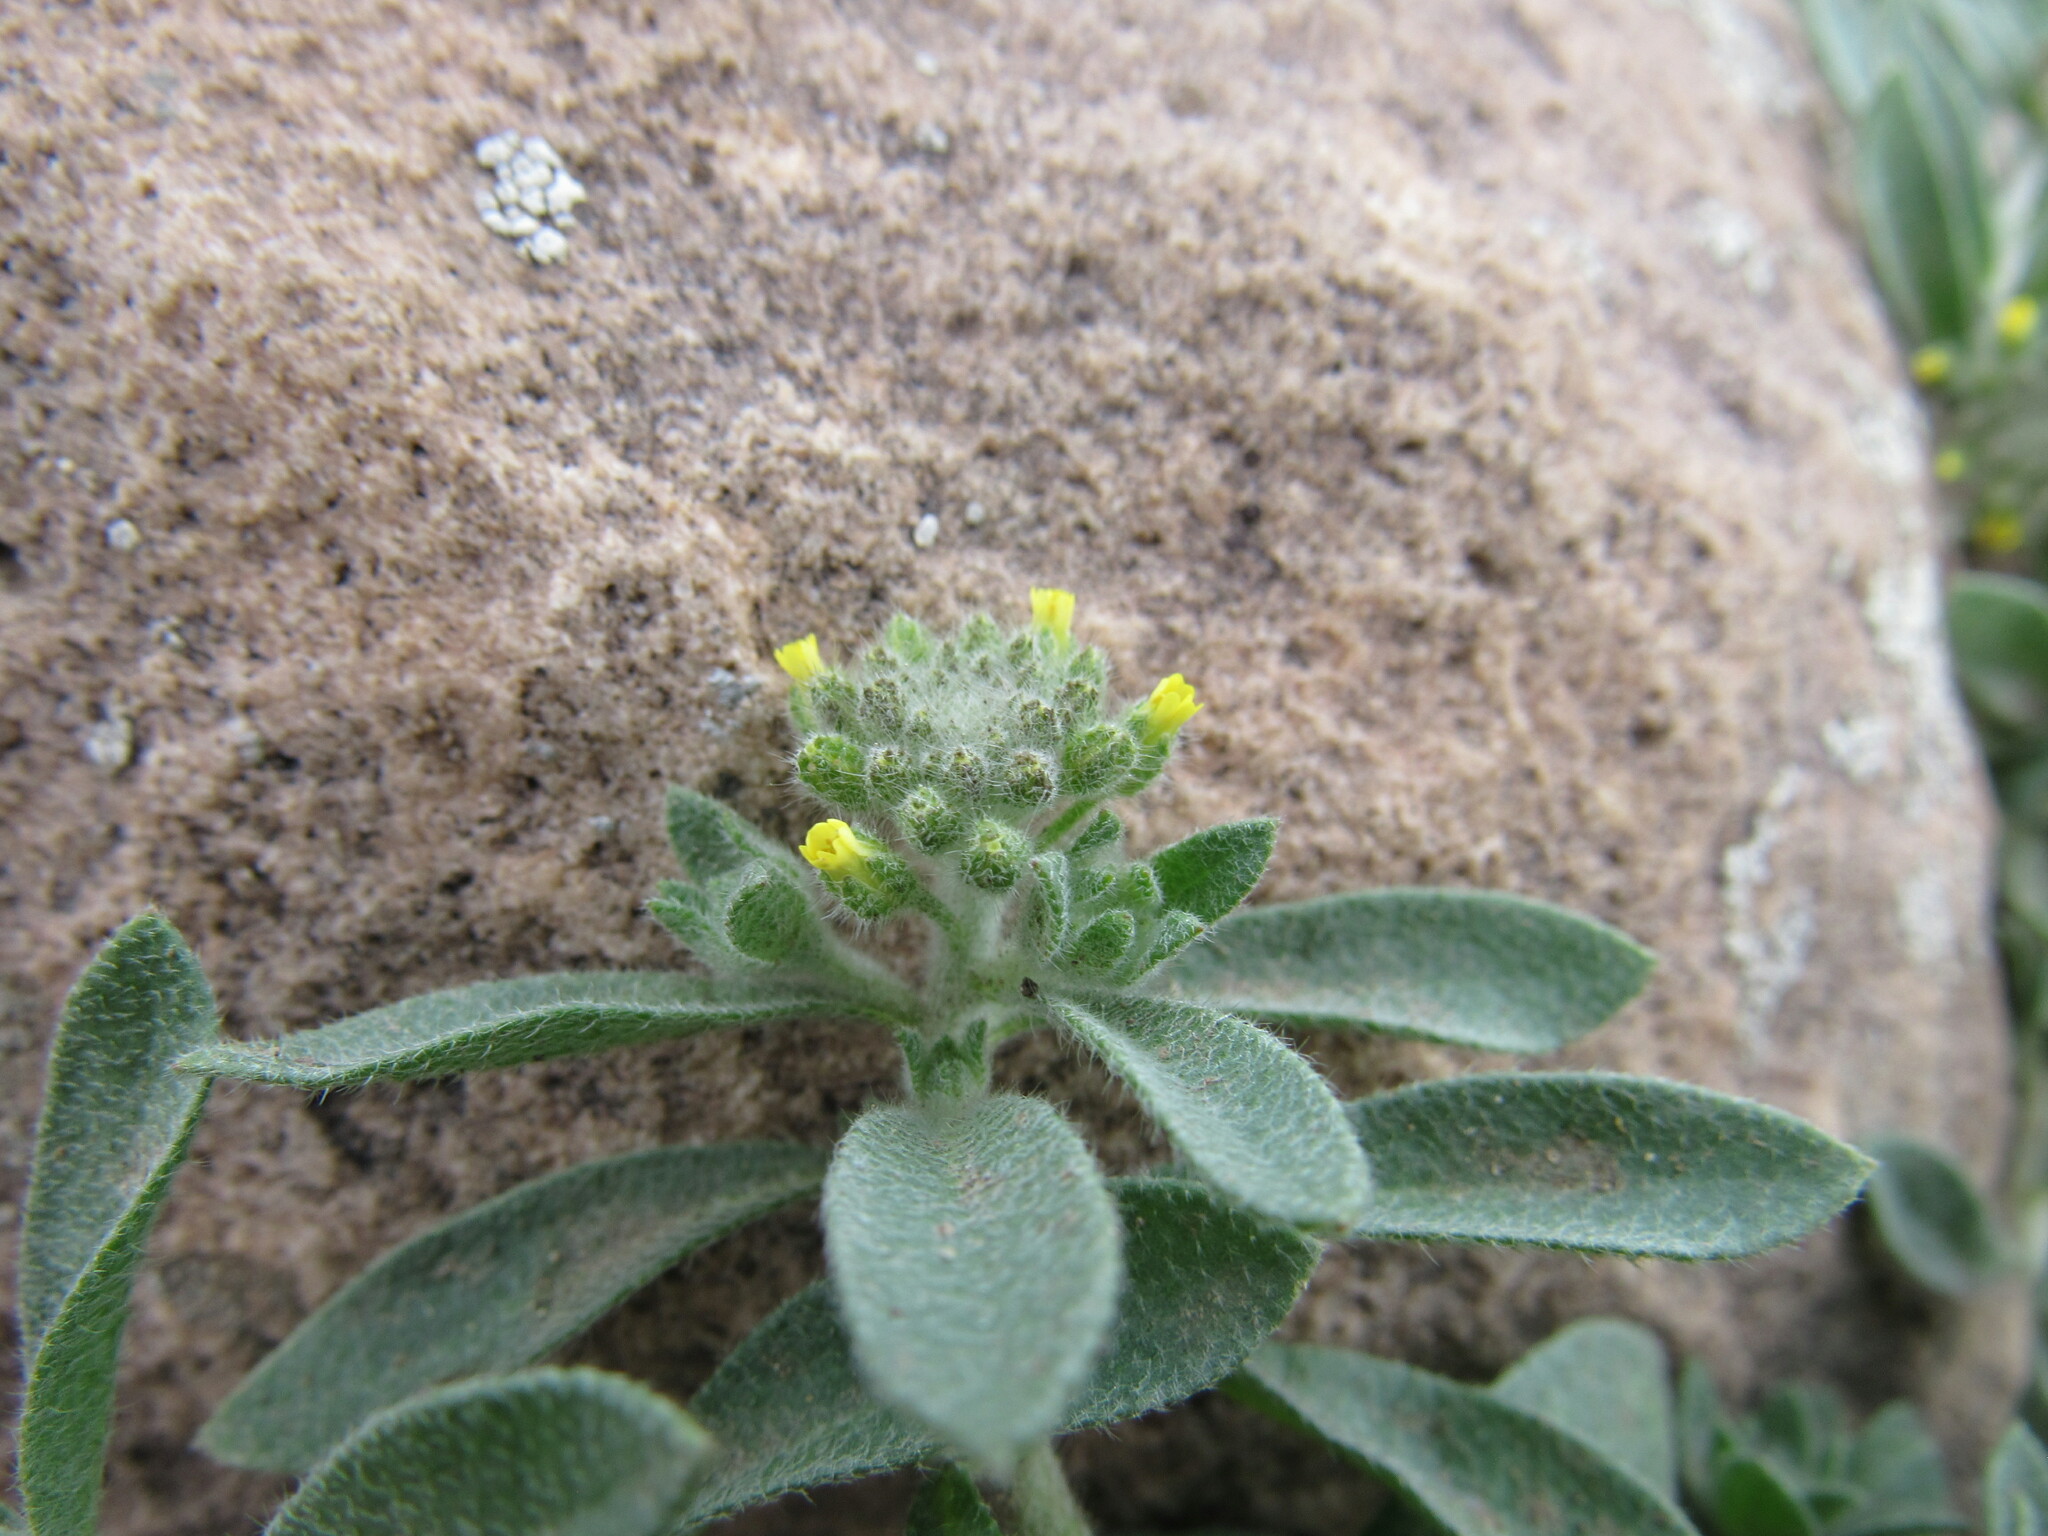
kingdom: Plantae
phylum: Tracheophyta
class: Magnoliopsida
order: Brassicales
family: Brassicaceae
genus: Alyssum
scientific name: Alyssum simplex
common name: Alyssum
